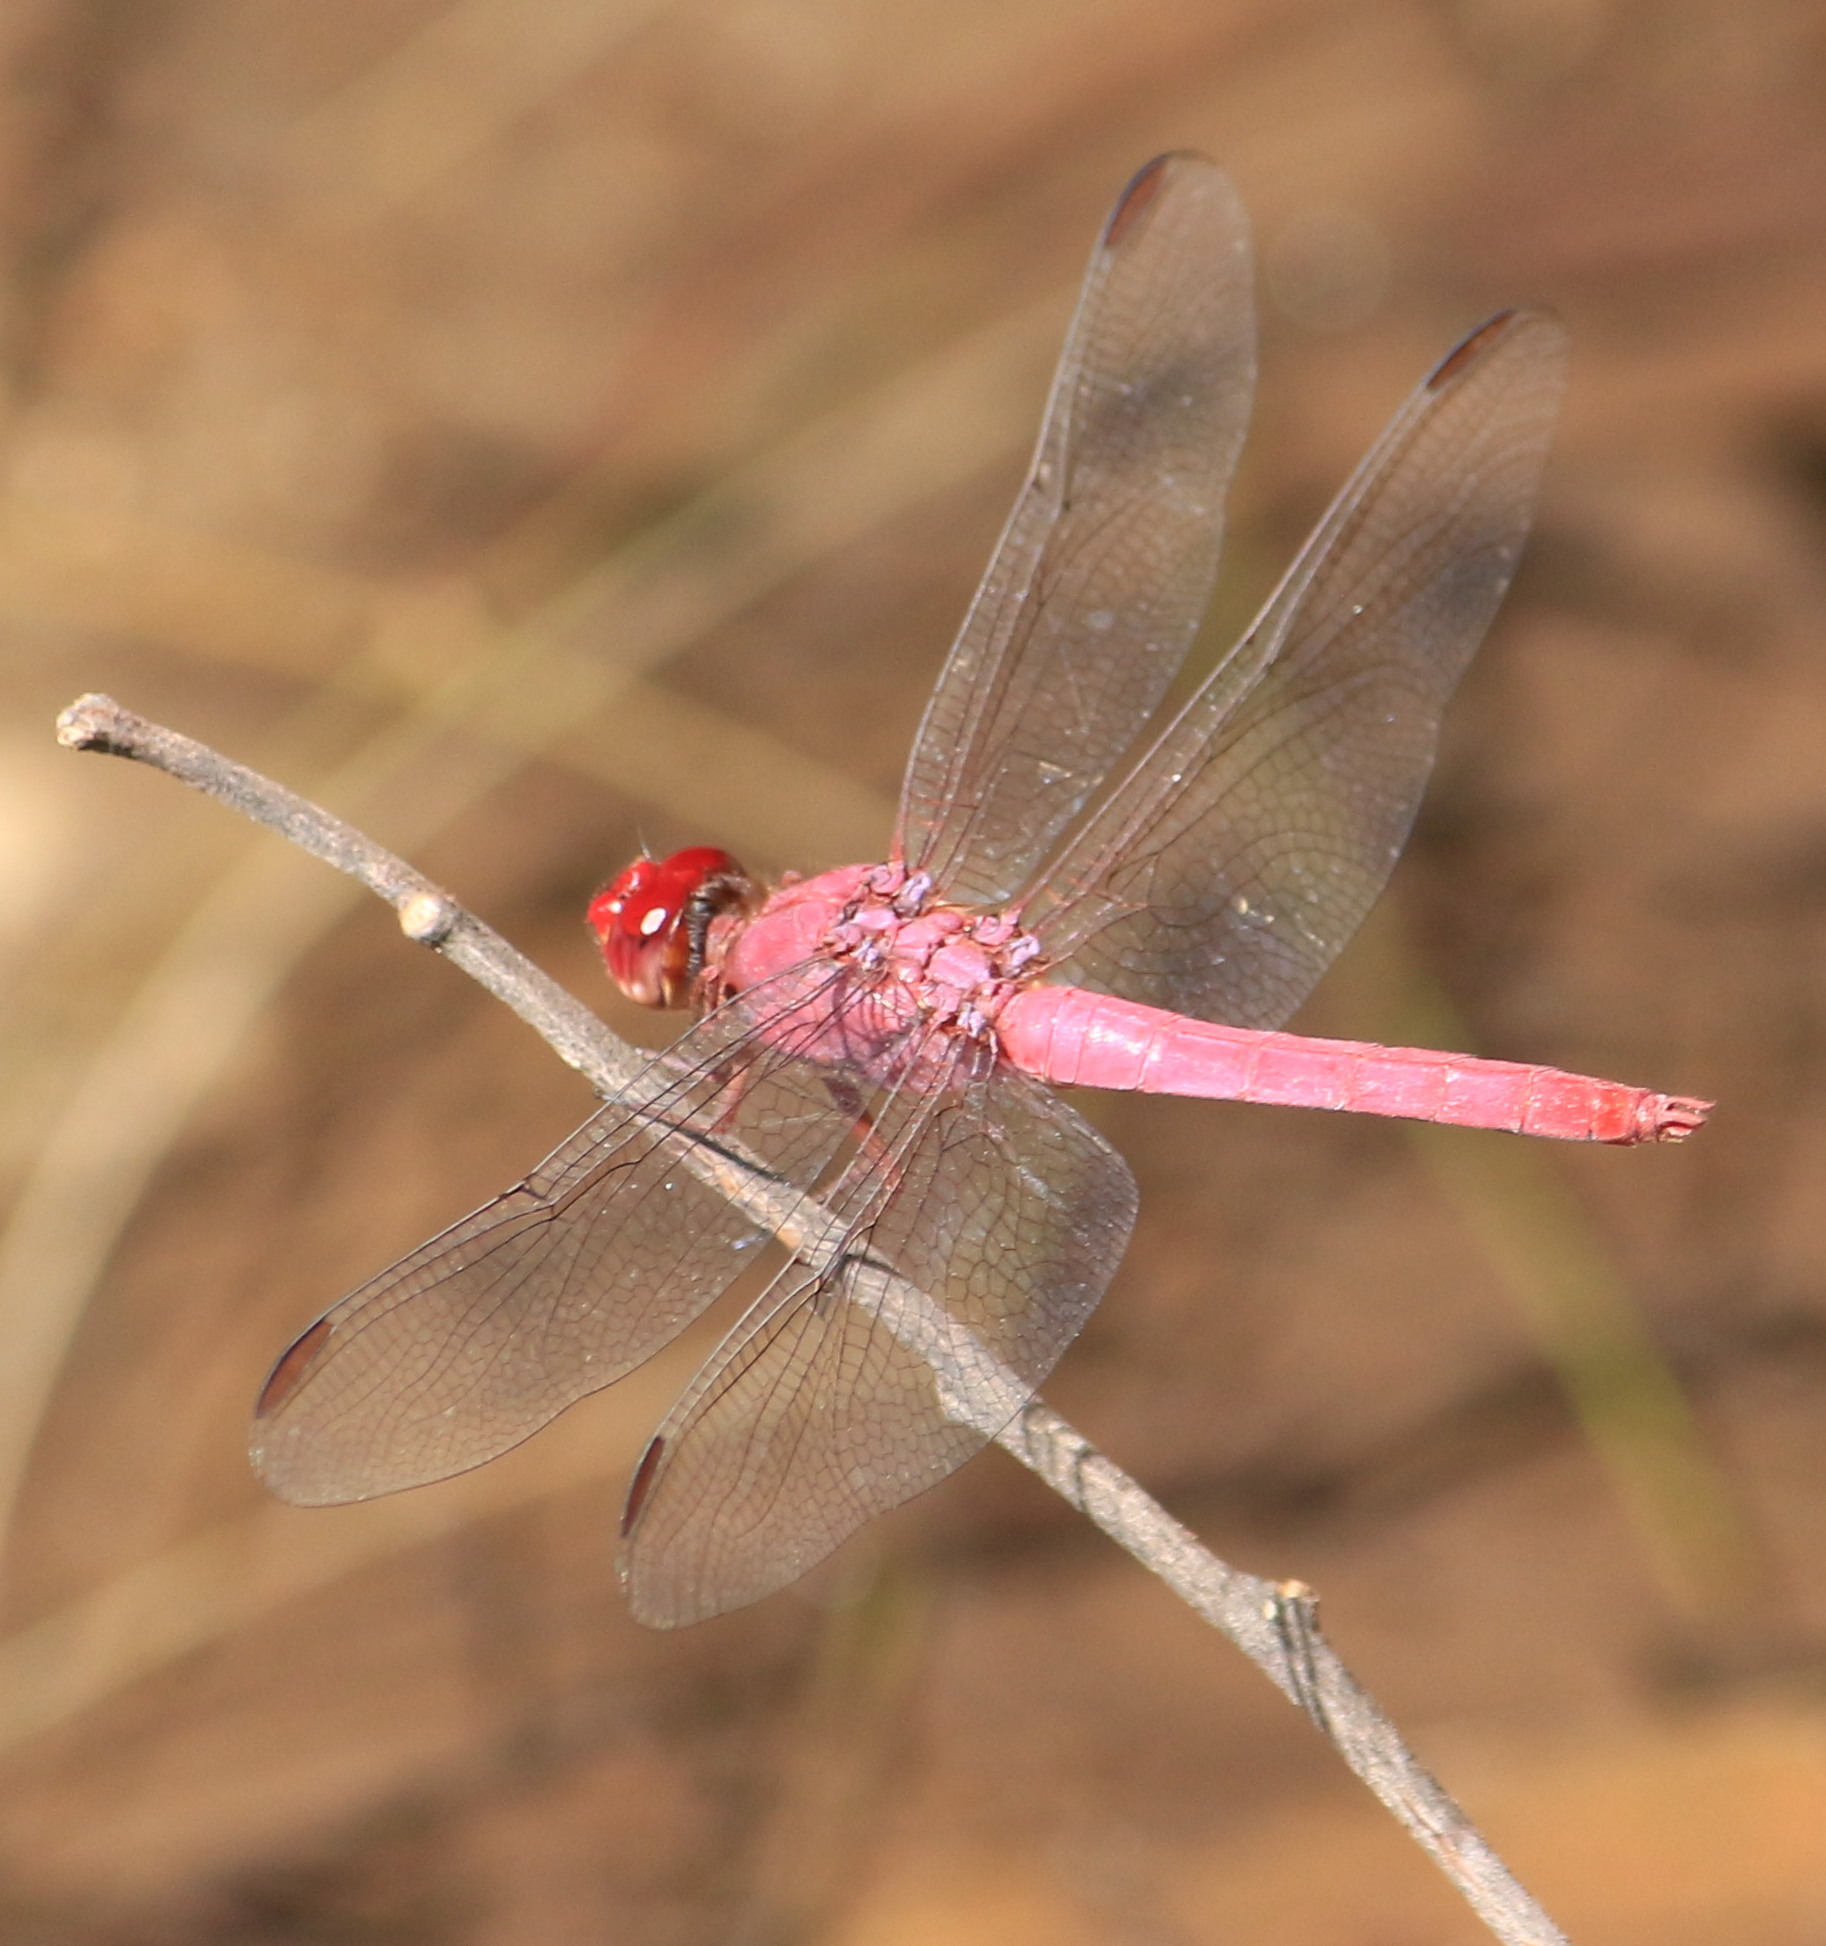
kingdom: Animalia
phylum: Arthropoda
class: Insecta
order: Odonata
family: Libellulidae
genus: Orthemis
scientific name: Orthemis discolor
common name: Carmine skimmer
